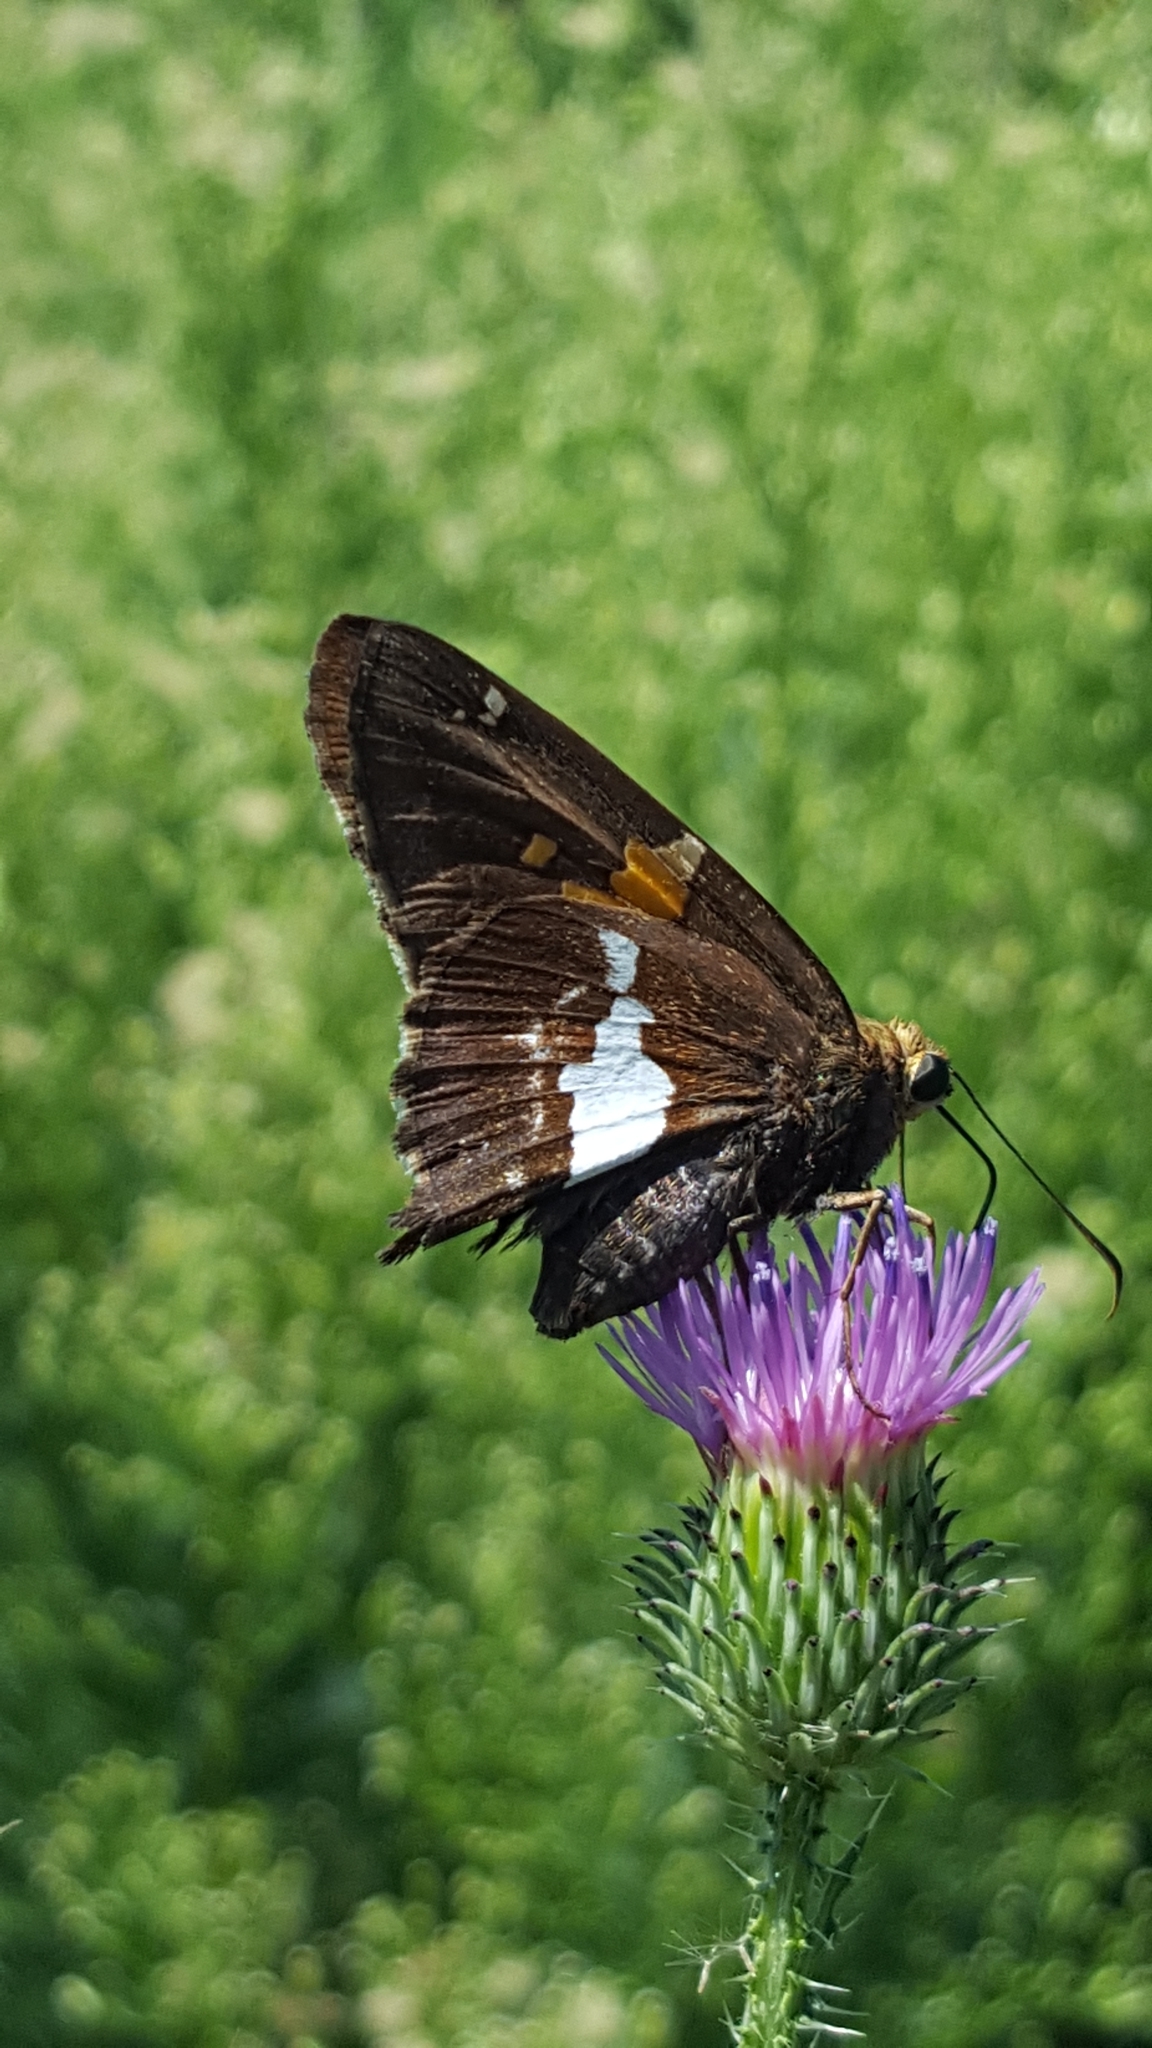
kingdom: Animalia
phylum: Arthropoda
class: Insecta
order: Lepidoptera
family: Hesperiidae
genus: Epargyreus
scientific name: Epargyreus clarus
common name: Silver-spotted skipper
